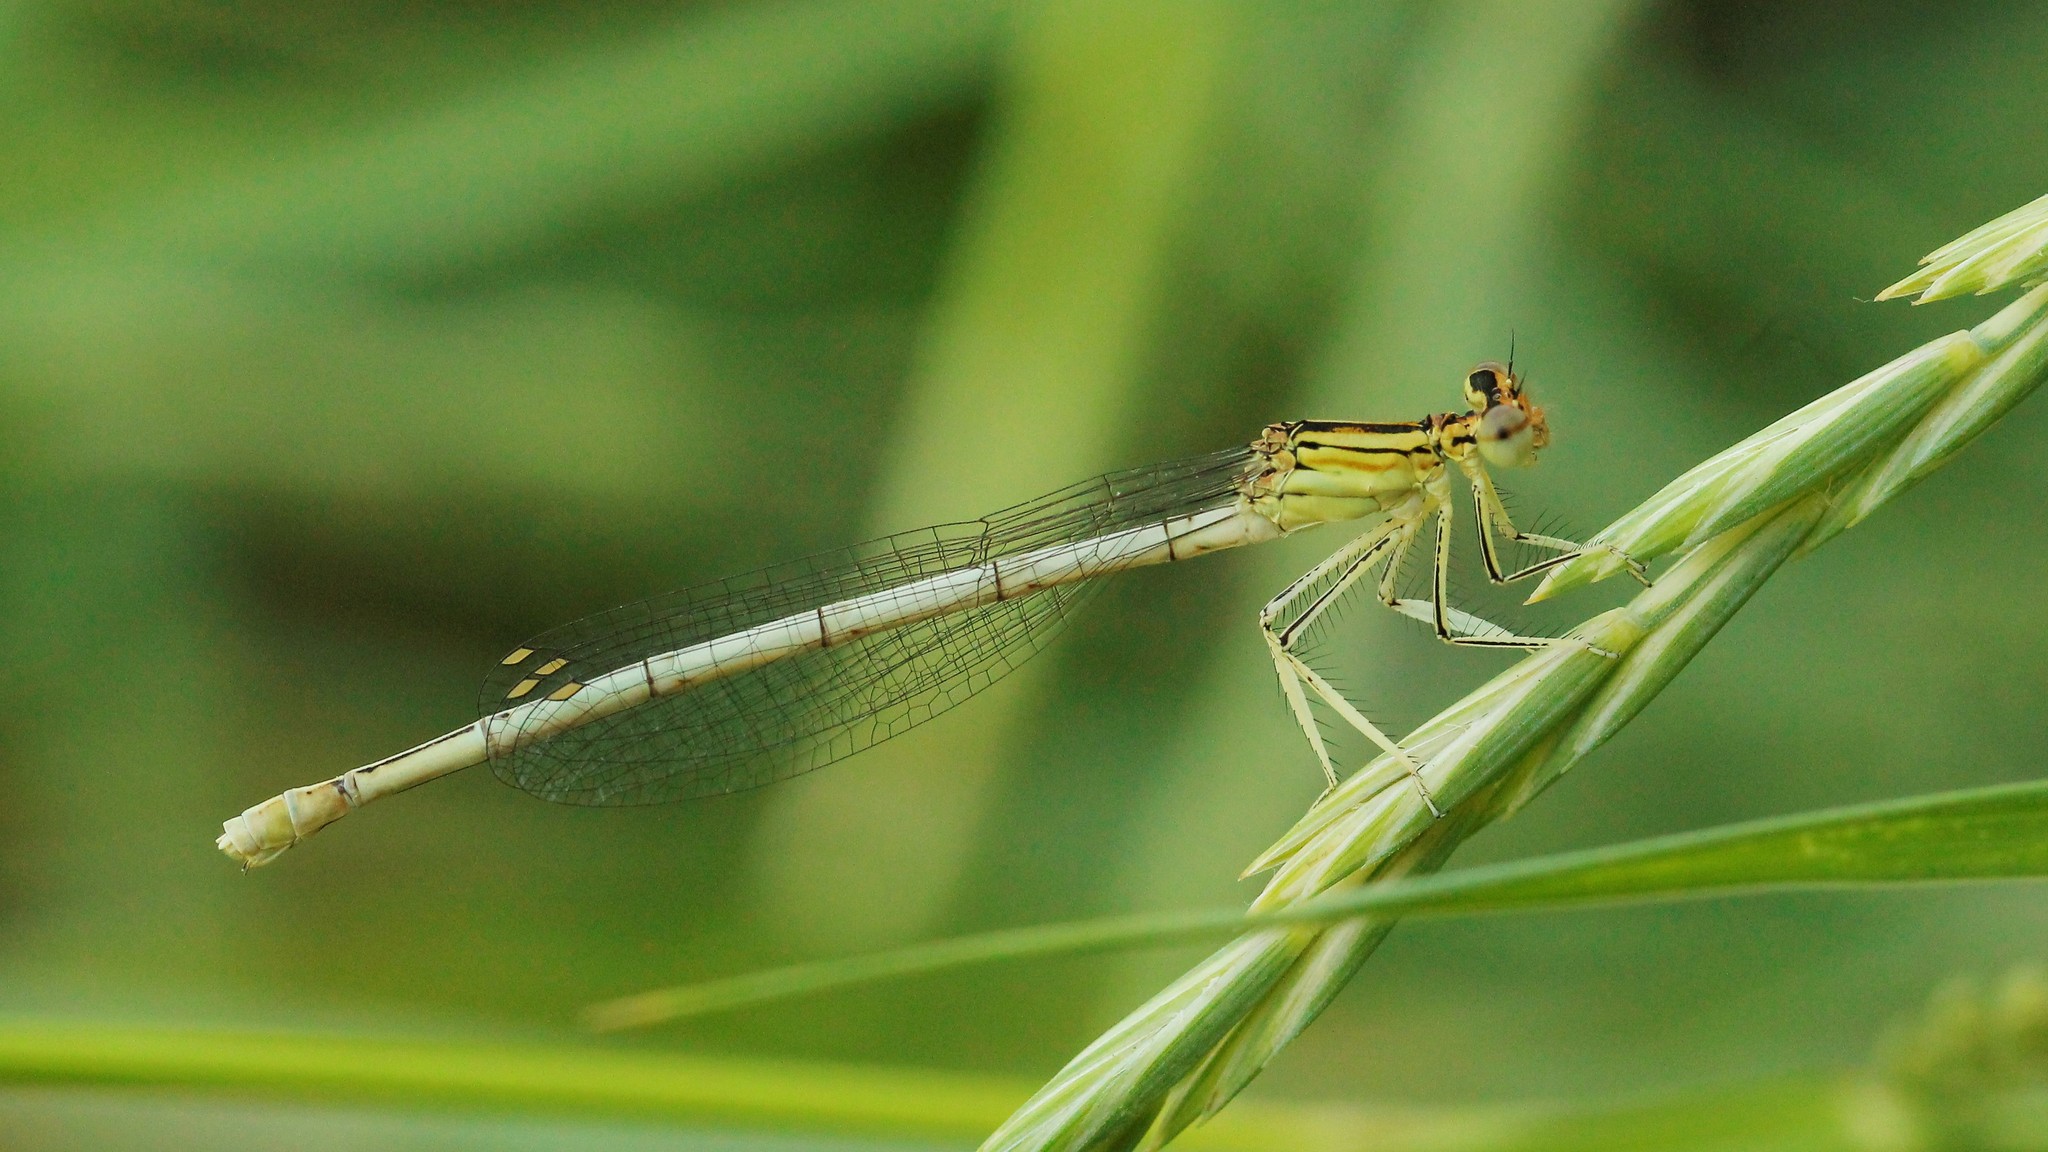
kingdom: Animalia
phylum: Arthropoda
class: Insecta
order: Odonata
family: Platycnemididae
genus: Platycnemis
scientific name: Platycnemis pennipes
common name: White-legged damselfly
